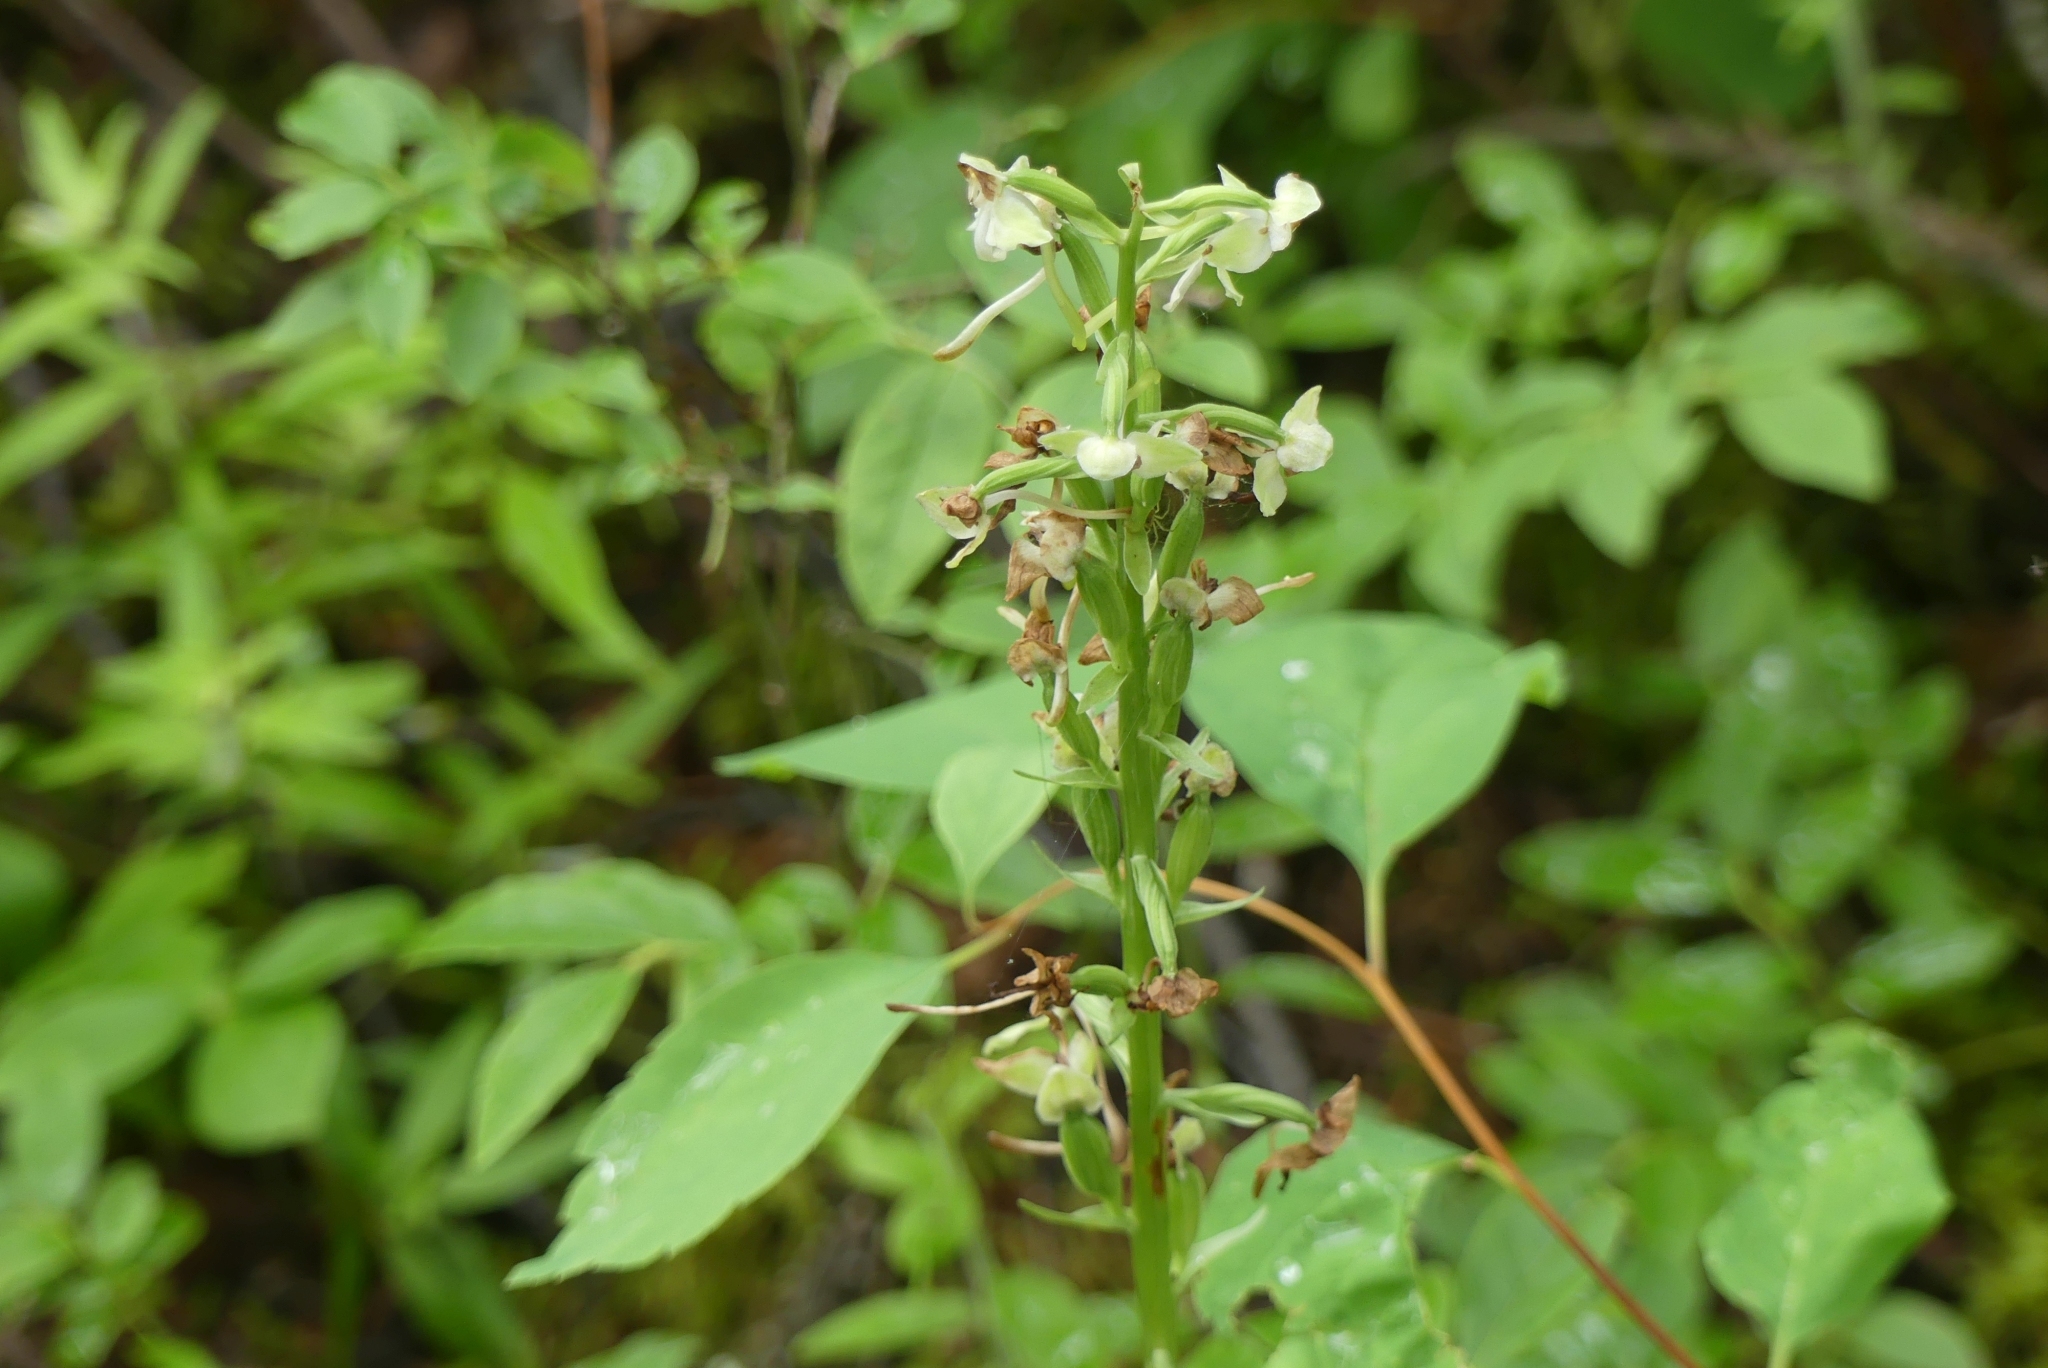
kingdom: Plantae
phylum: Tracheophyta
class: Liliopsida
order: Asparagales
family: Orchidaceae
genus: Platanthera
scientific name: Platanthera orbiculata
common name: Large round-leaved orchid
